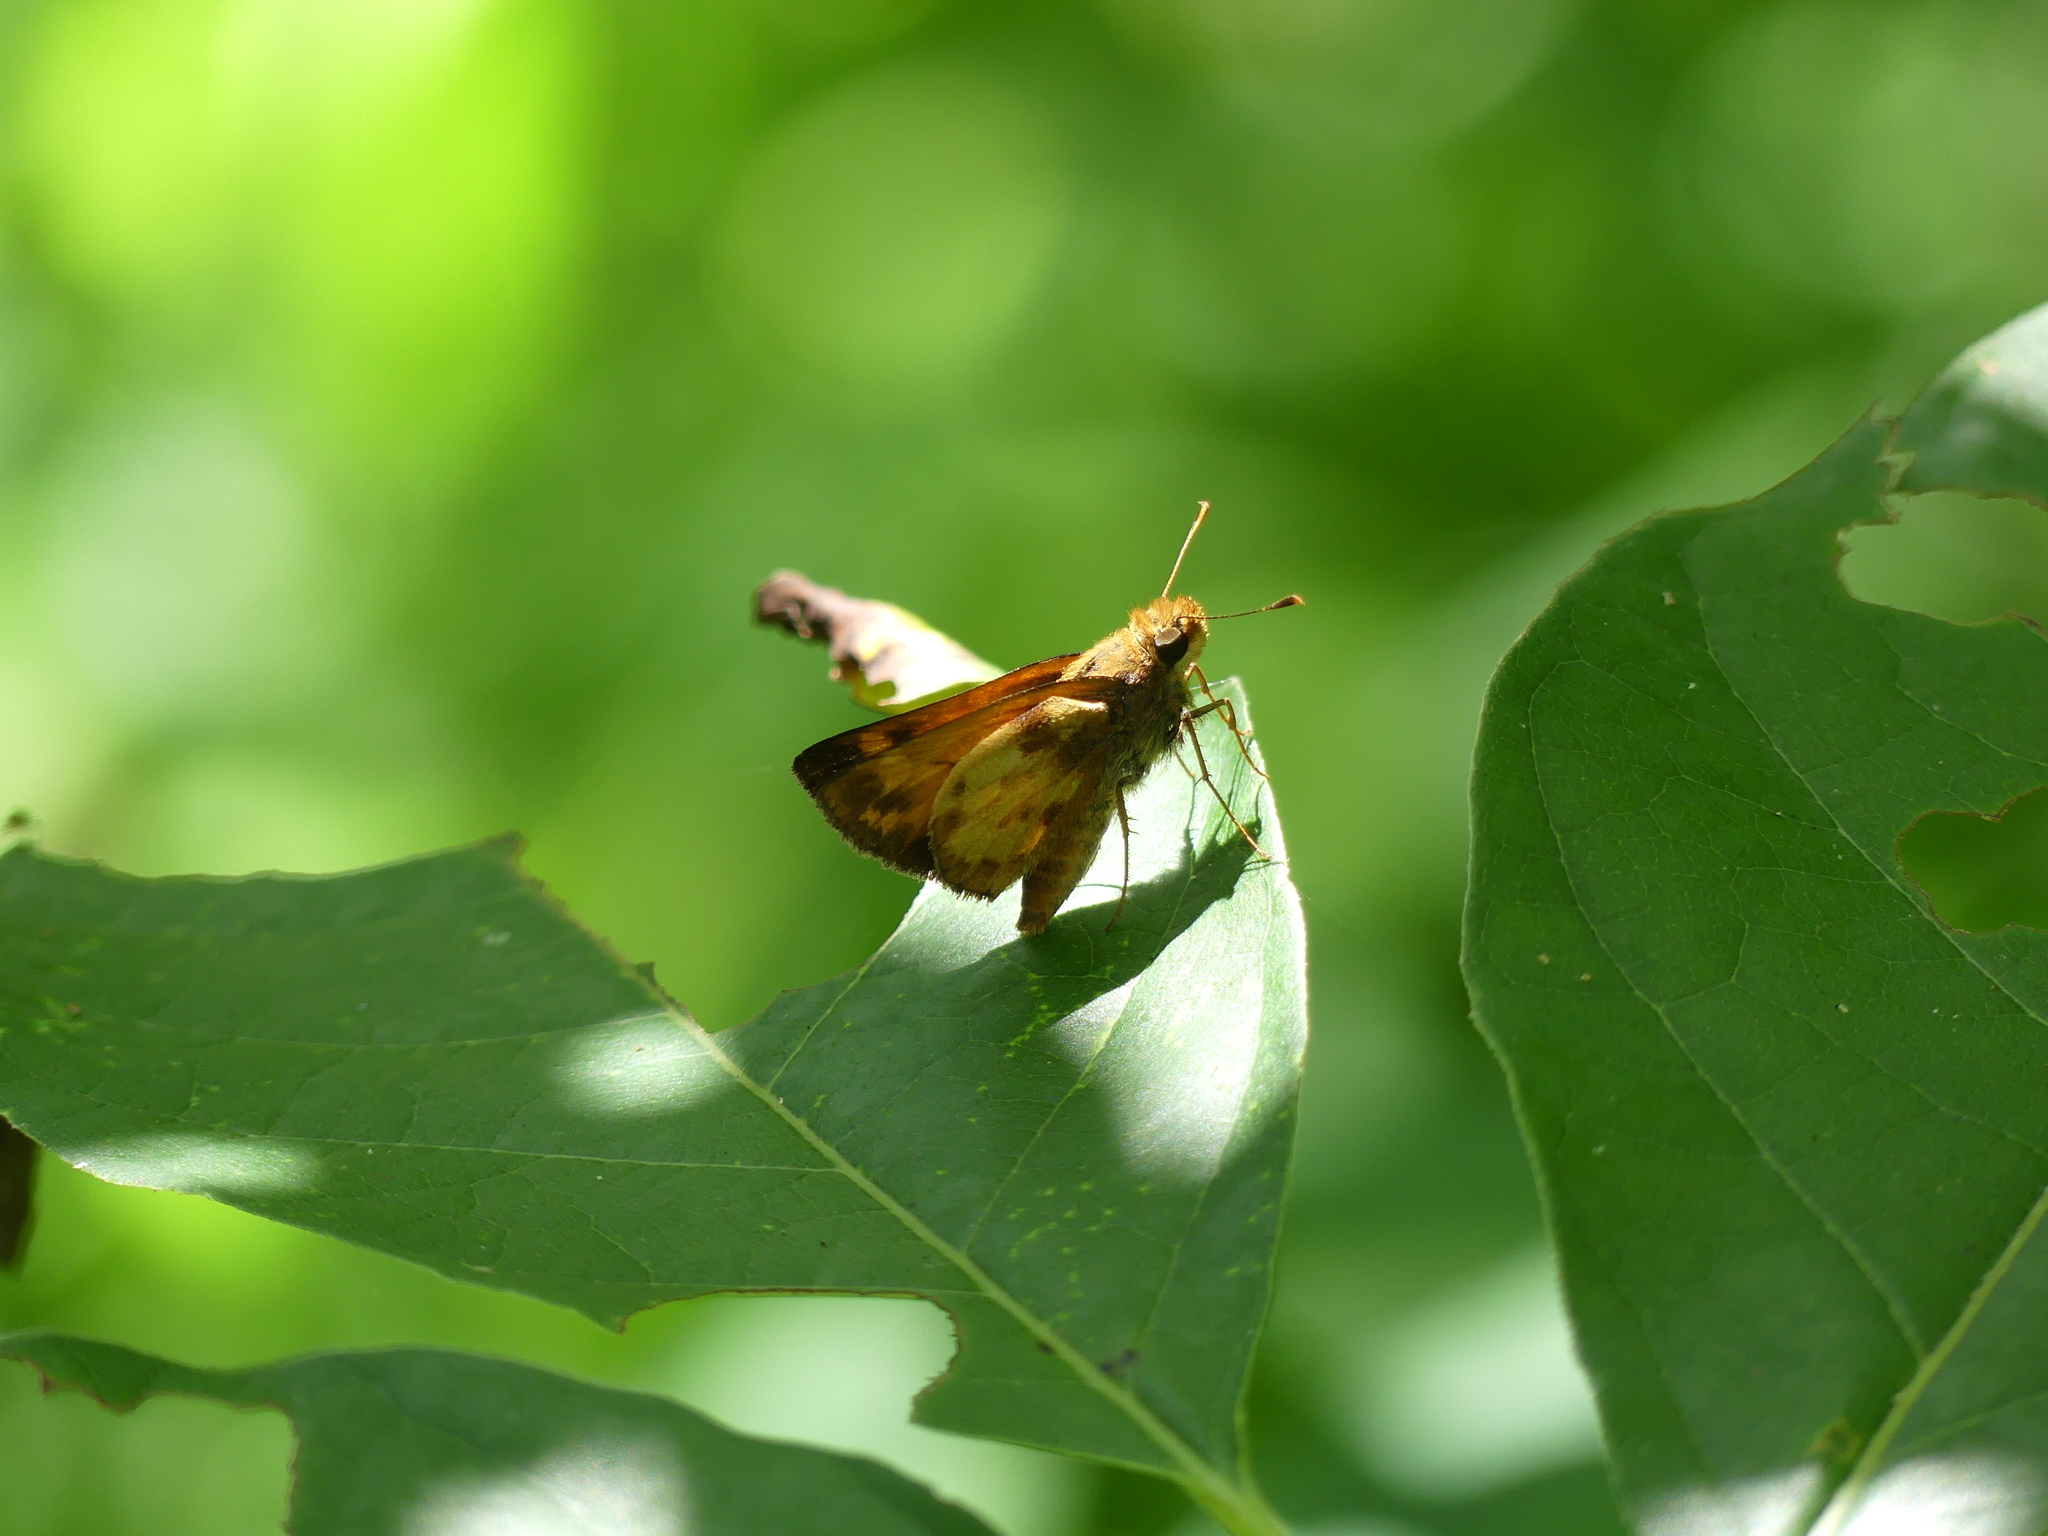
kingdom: Animalia
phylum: Arthropoda
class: Insecta
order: Lepidoptera
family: Hesperiidae
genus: Lon
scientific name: Lon zabulon
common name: Zabulon skipper
